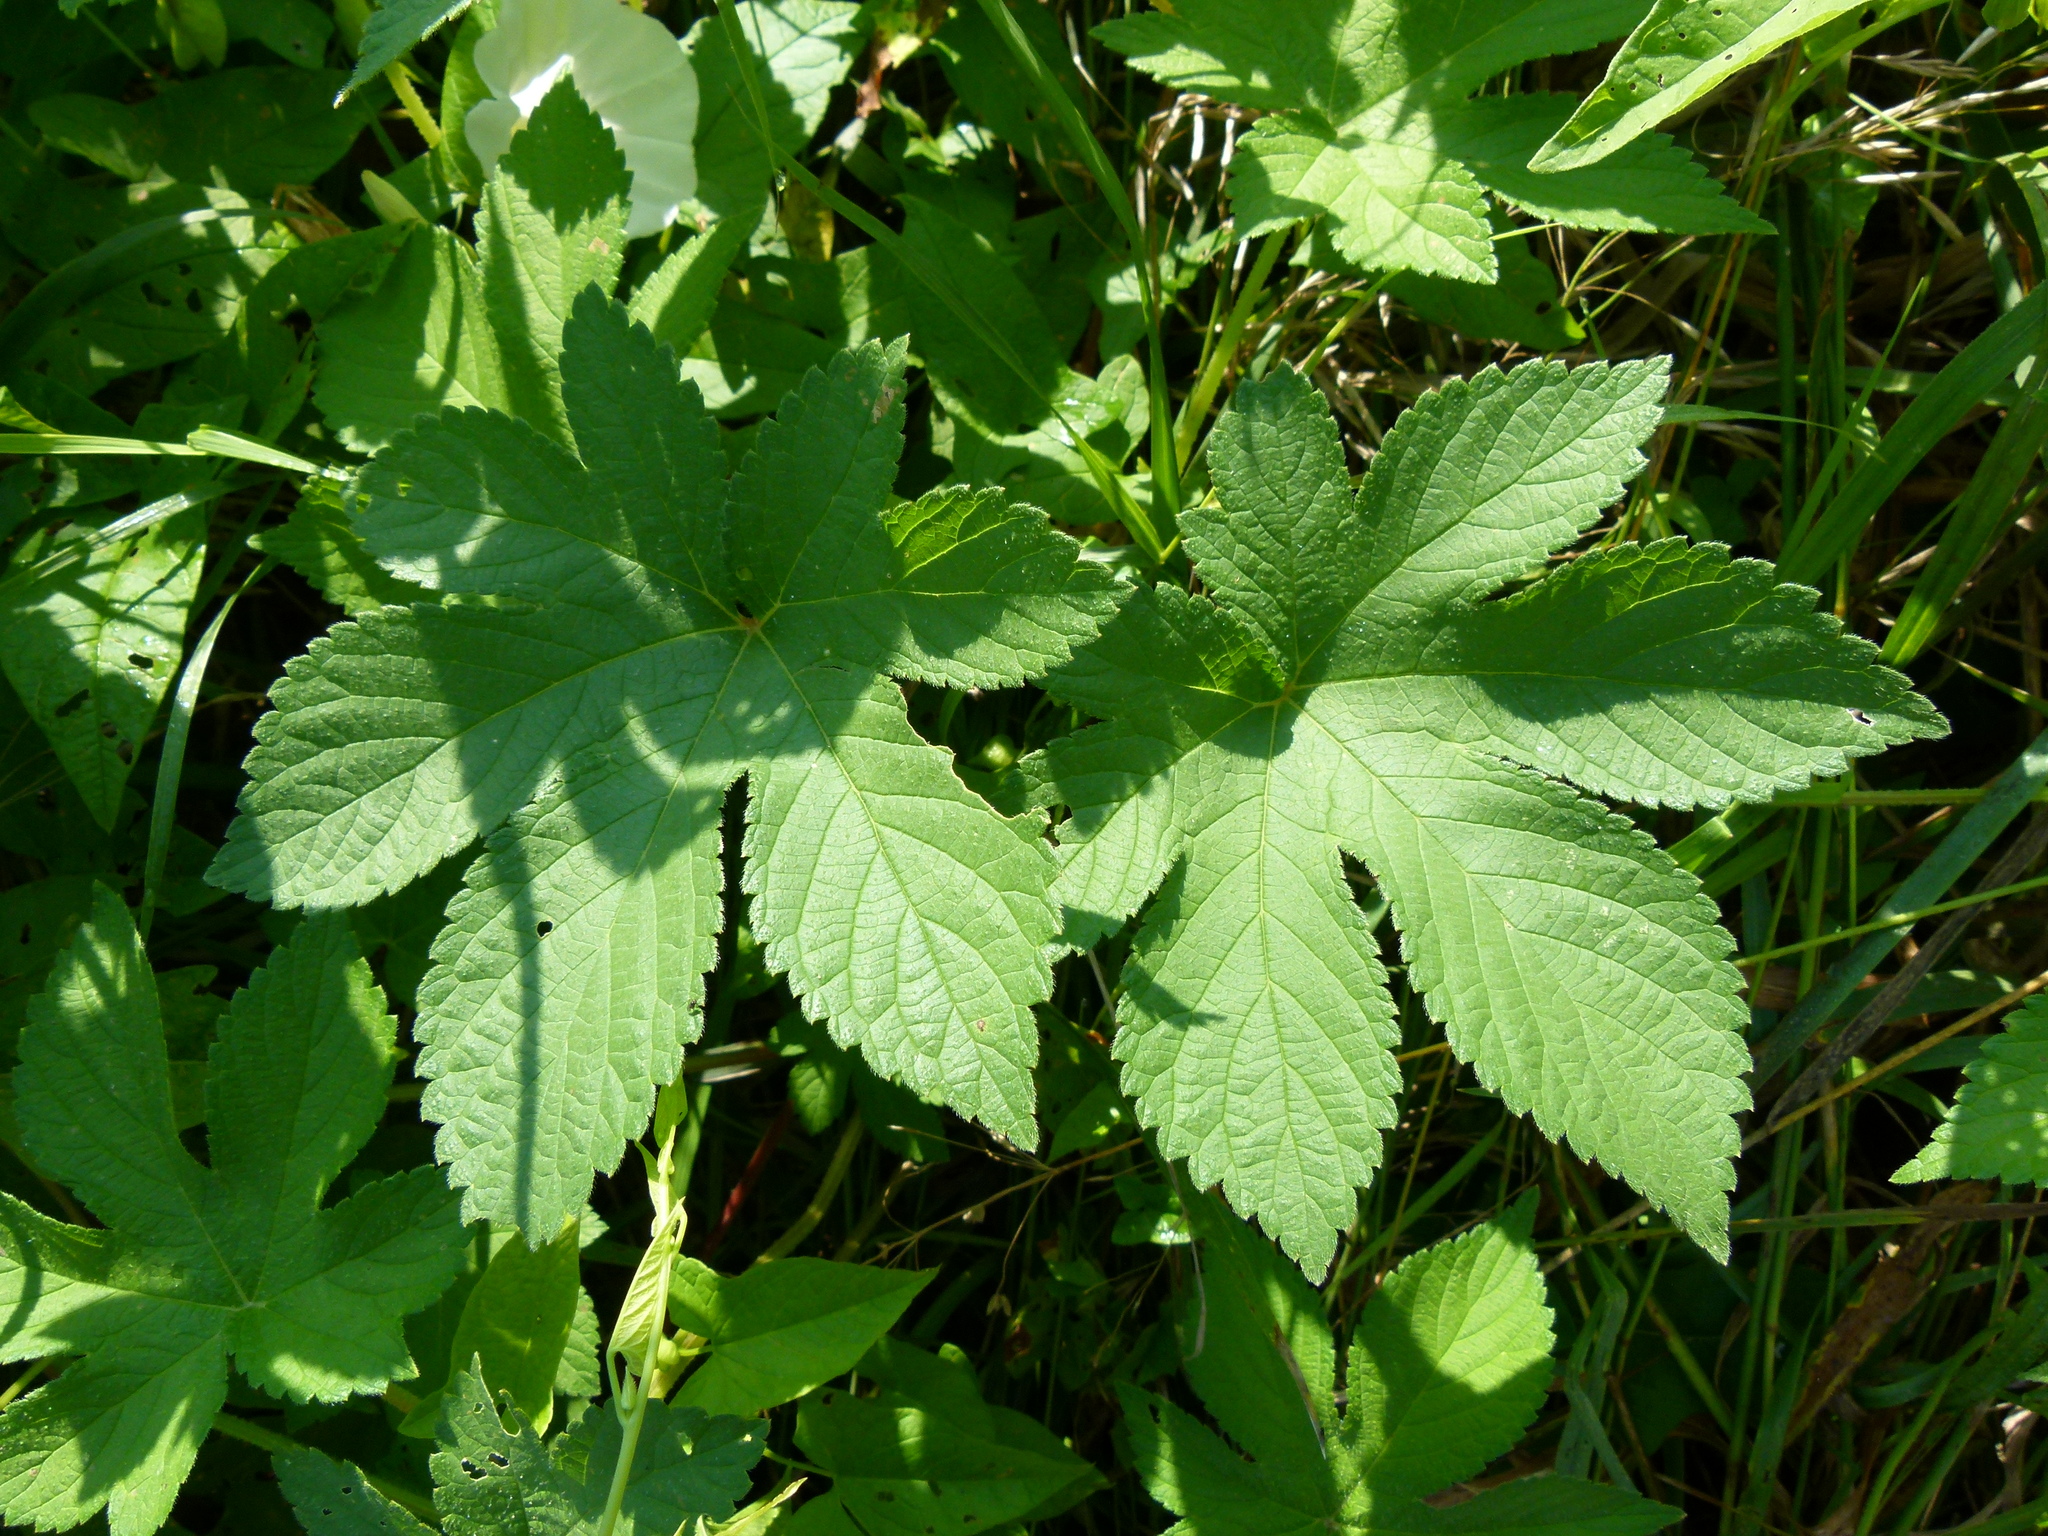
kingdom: Plantae
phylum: Tracheophyta
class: Magnoliopsida
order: Rosales
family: Cannabaceae
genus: Humulus
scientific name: Humulus scandens
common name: Japanese hop
